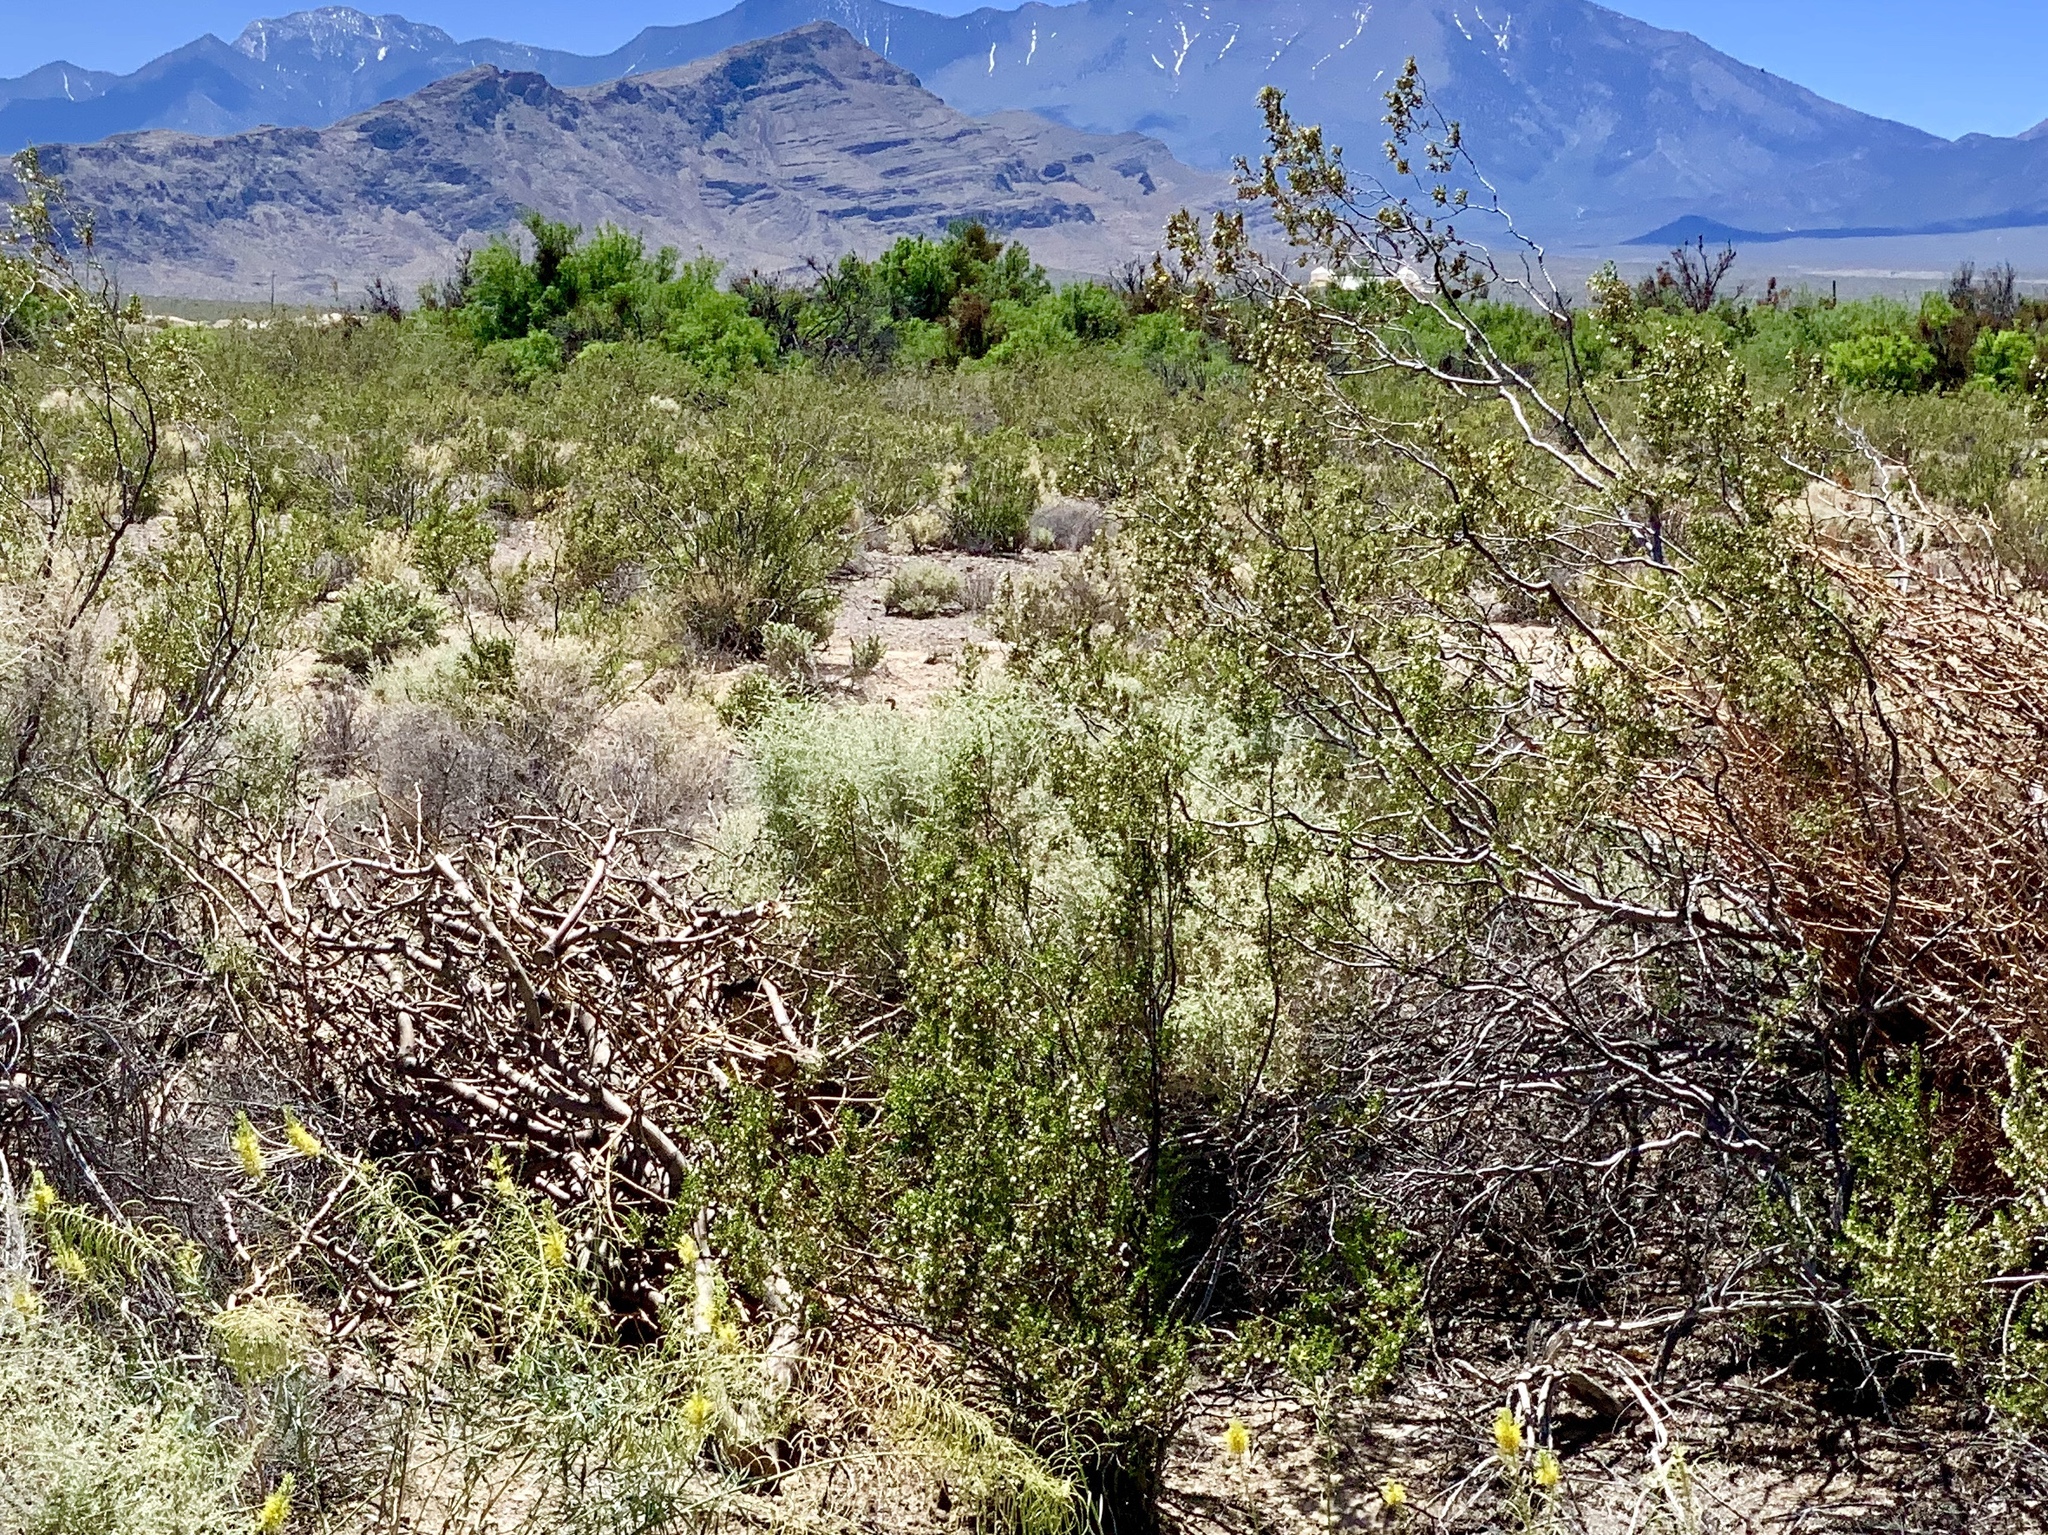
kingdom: Plantae
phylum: Tracheophyta
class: Magnoliopsida
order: Zygophyllales
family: Zygophyllaceae
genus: Larrea
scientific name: Larrea tridentata
